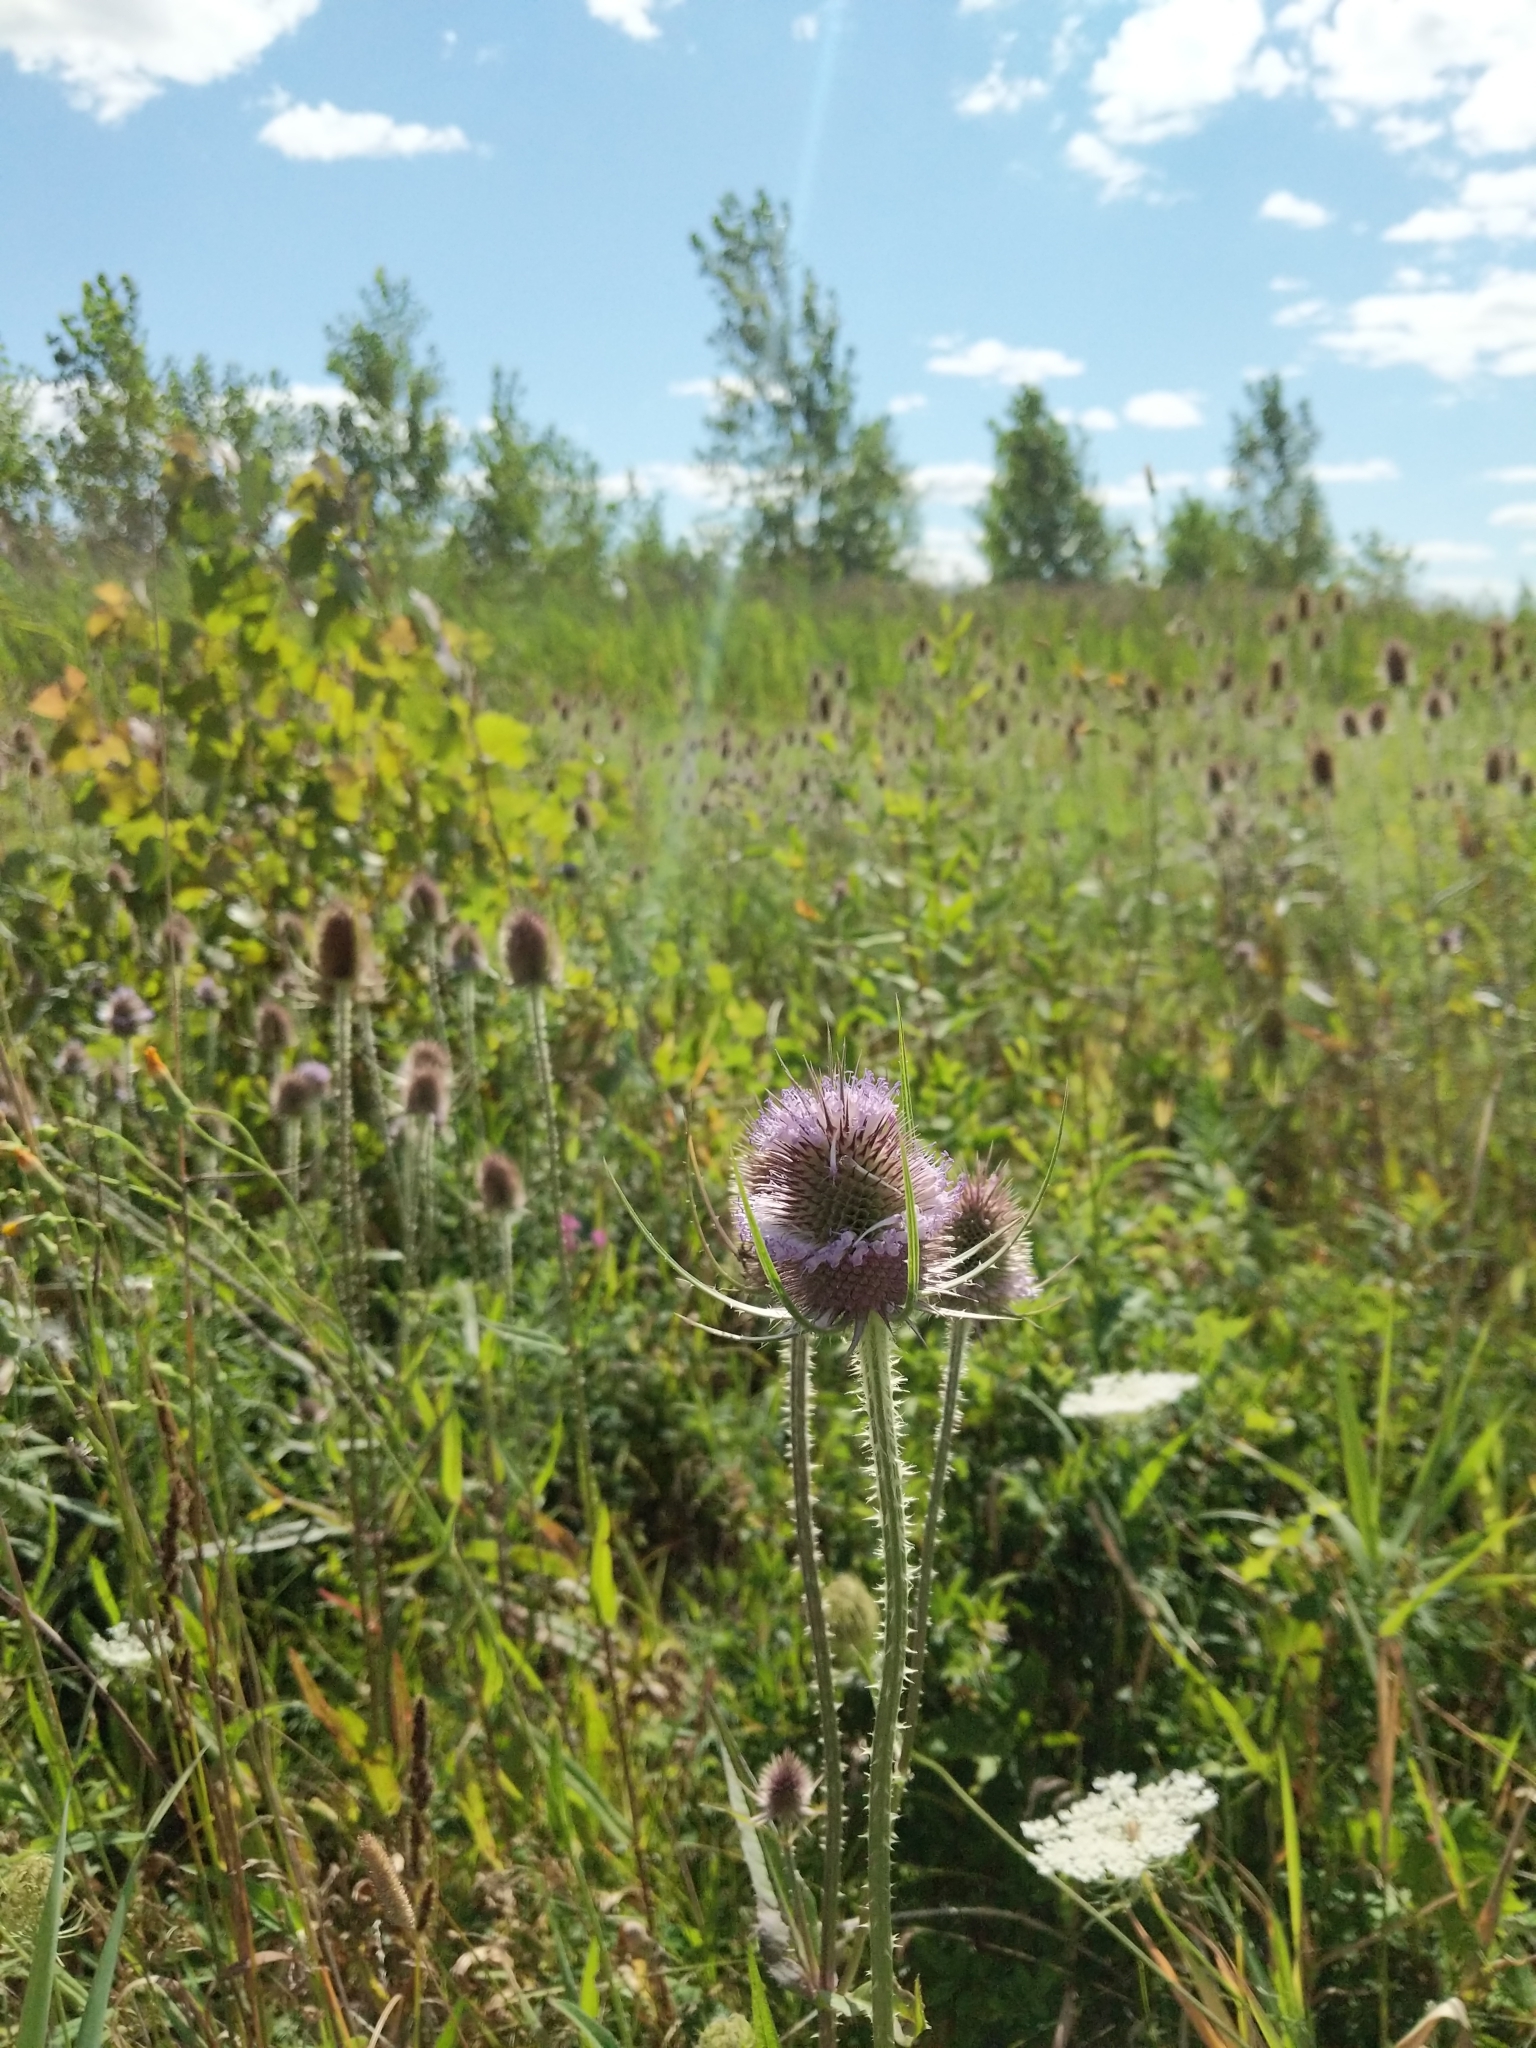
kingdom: Plantae
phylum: Tracheophyta
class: Magnoliopsida
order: Dipsacales
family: Caprifoliaceae
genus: Dipsacus
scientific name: Dipsacus fullonum
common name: Teasel
